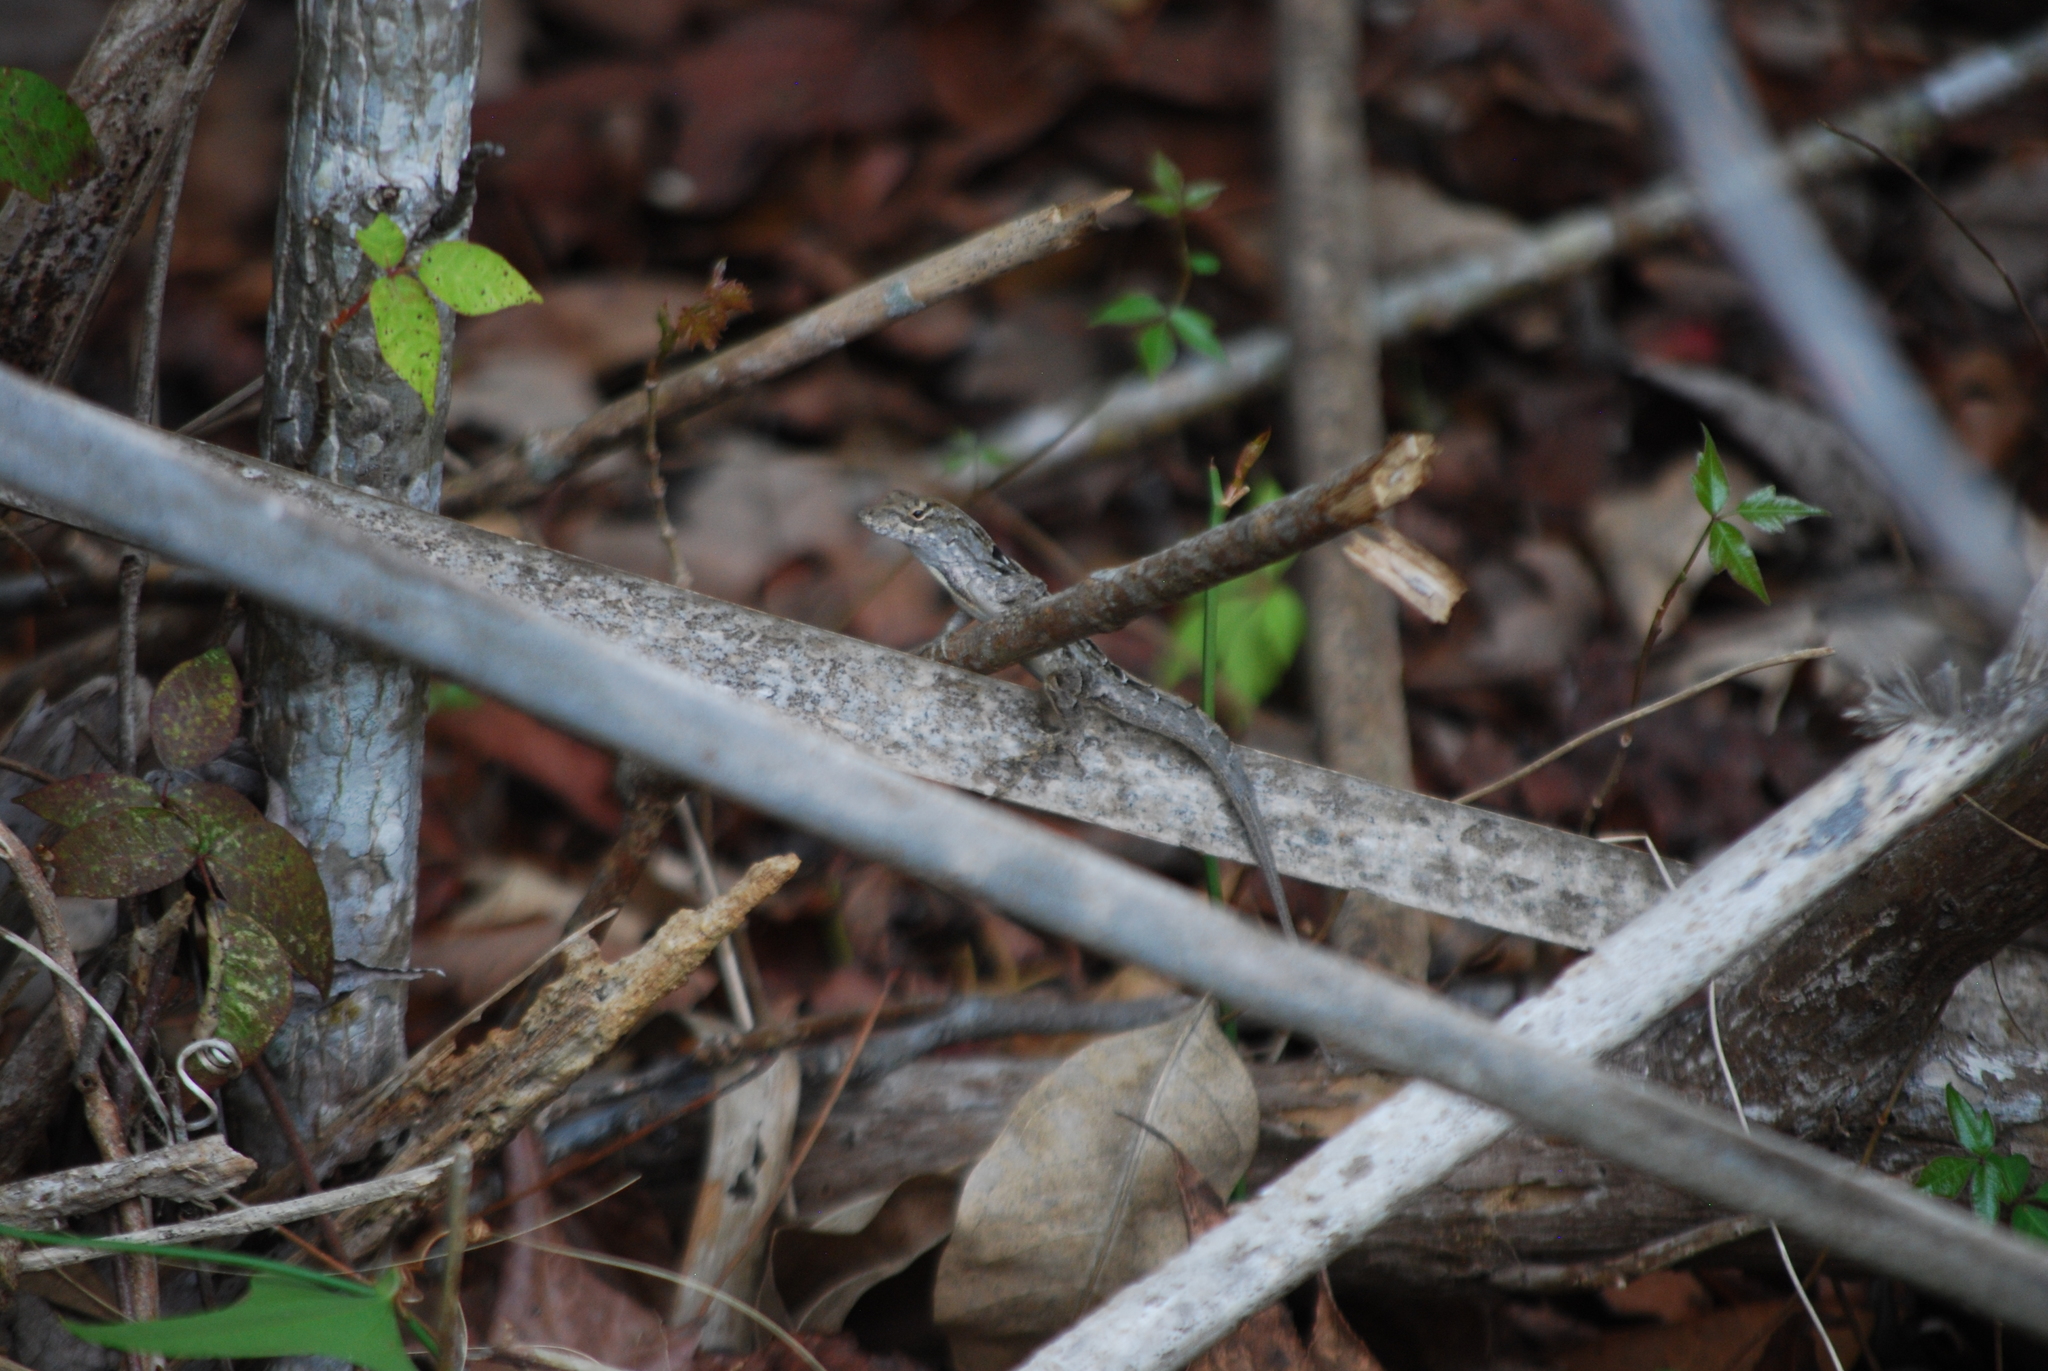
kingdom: Animalia
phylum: Chordata
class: Squamata
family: Dactyloidae
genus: Anolis
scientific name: Anolis sagrei
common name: Brown anole
